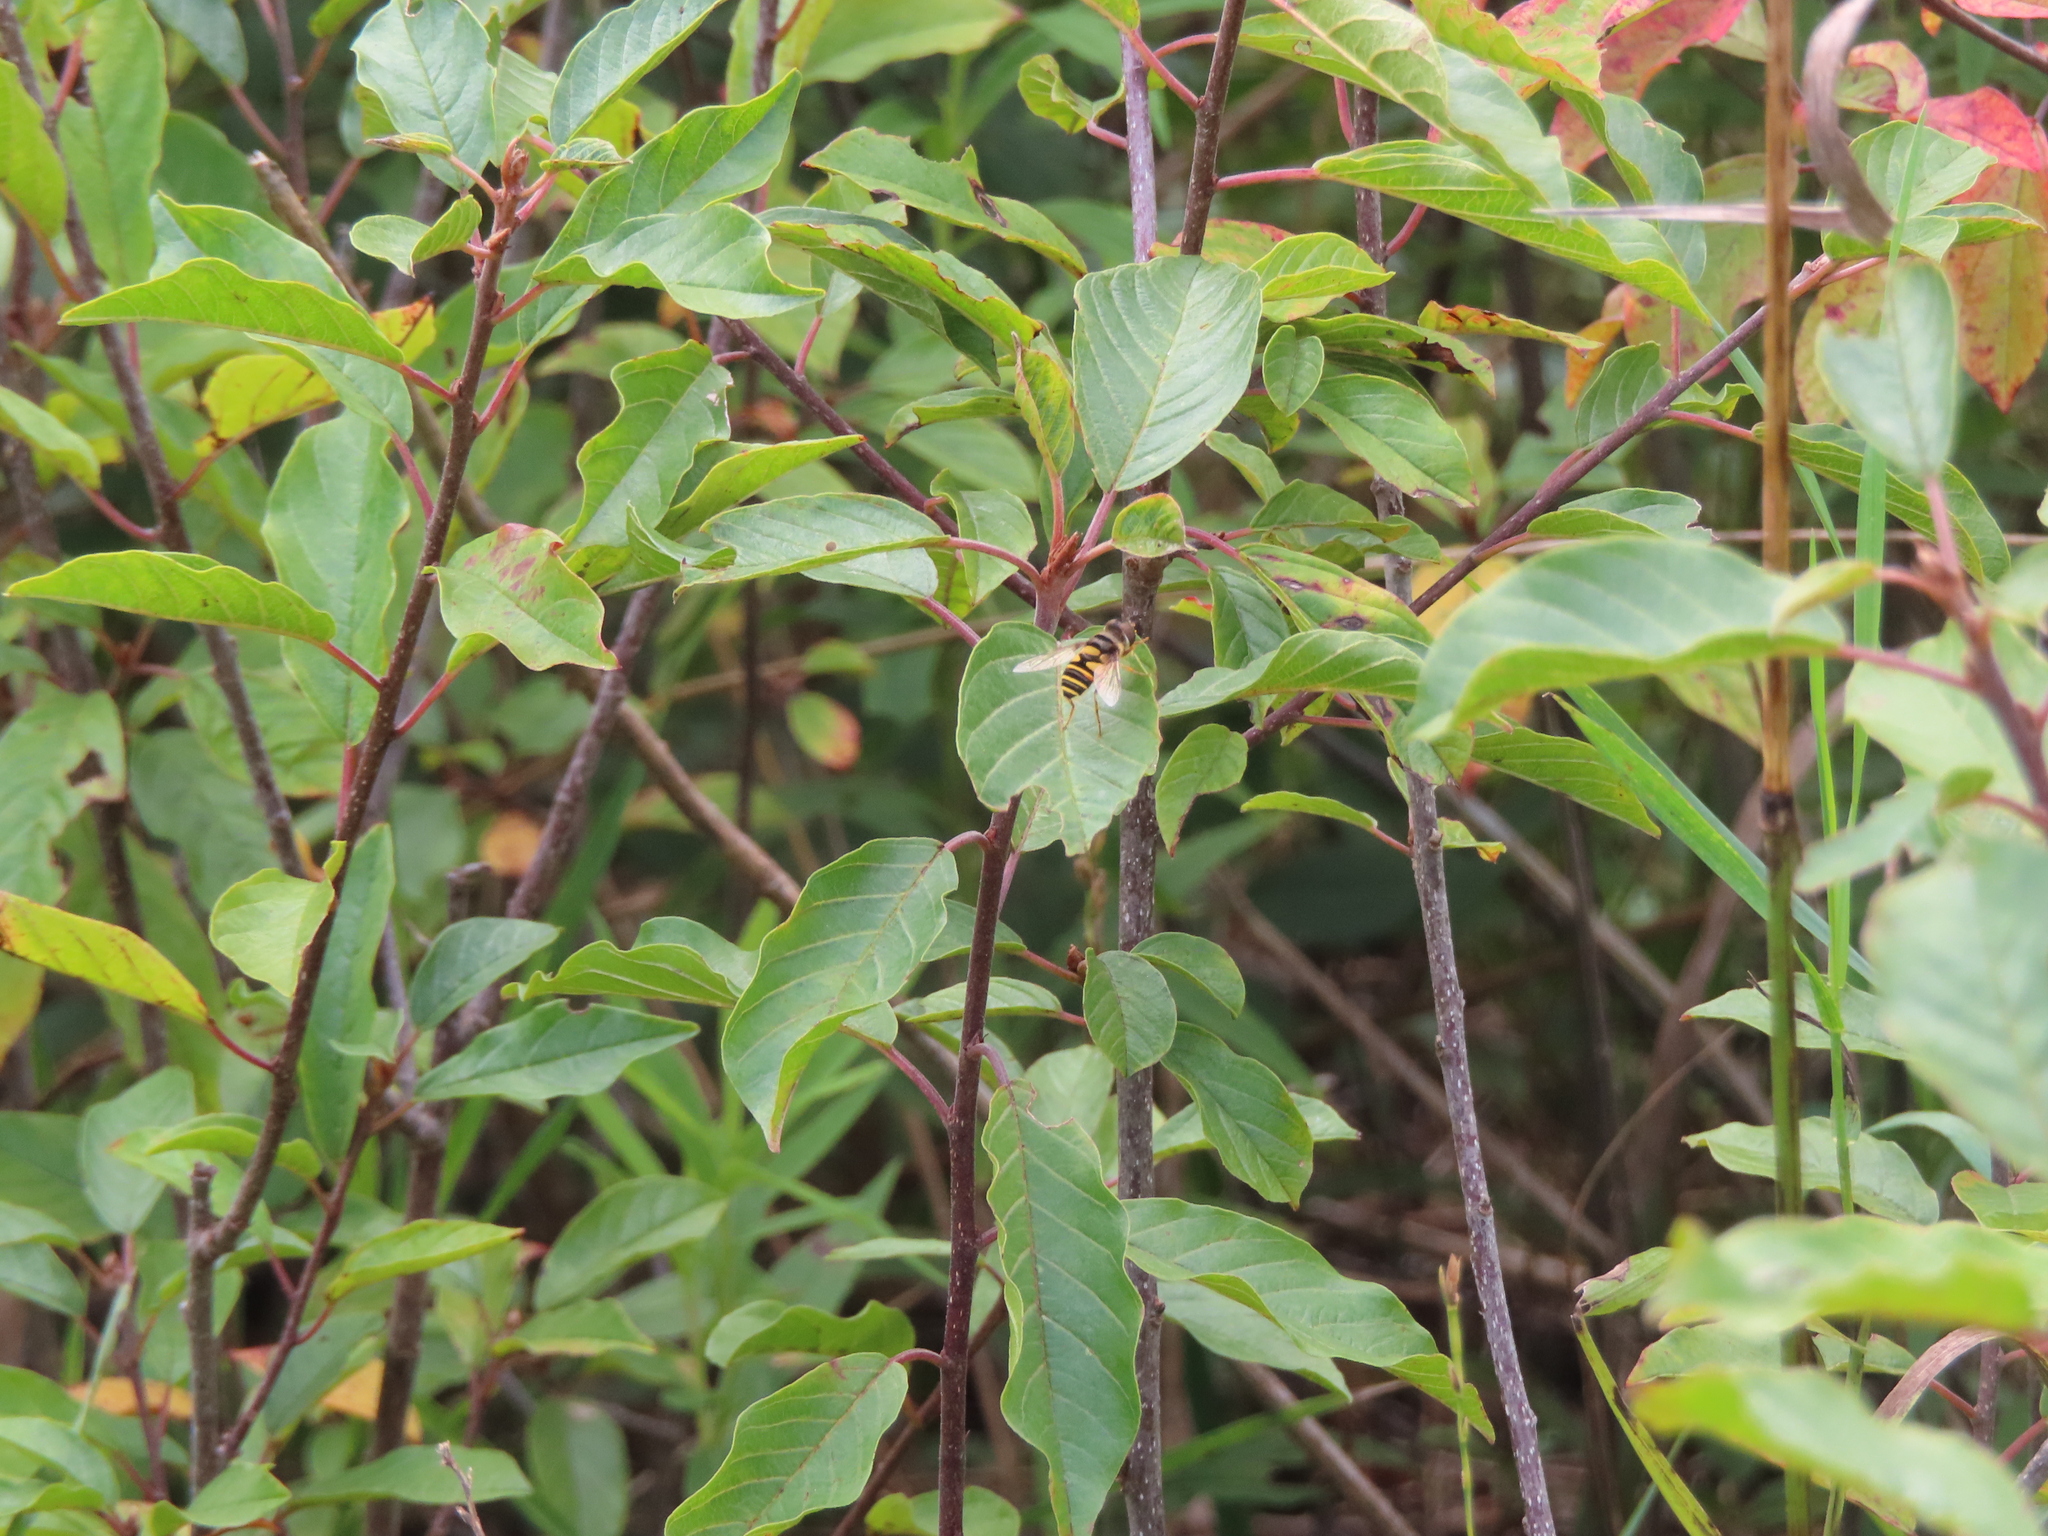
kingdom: Plantae
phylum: Tracheophyta
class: Magnoliopsida
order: Rosales
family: Rhamnaceae
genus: Frangula
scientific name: Frangula alnus
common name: Alder buckthorn
